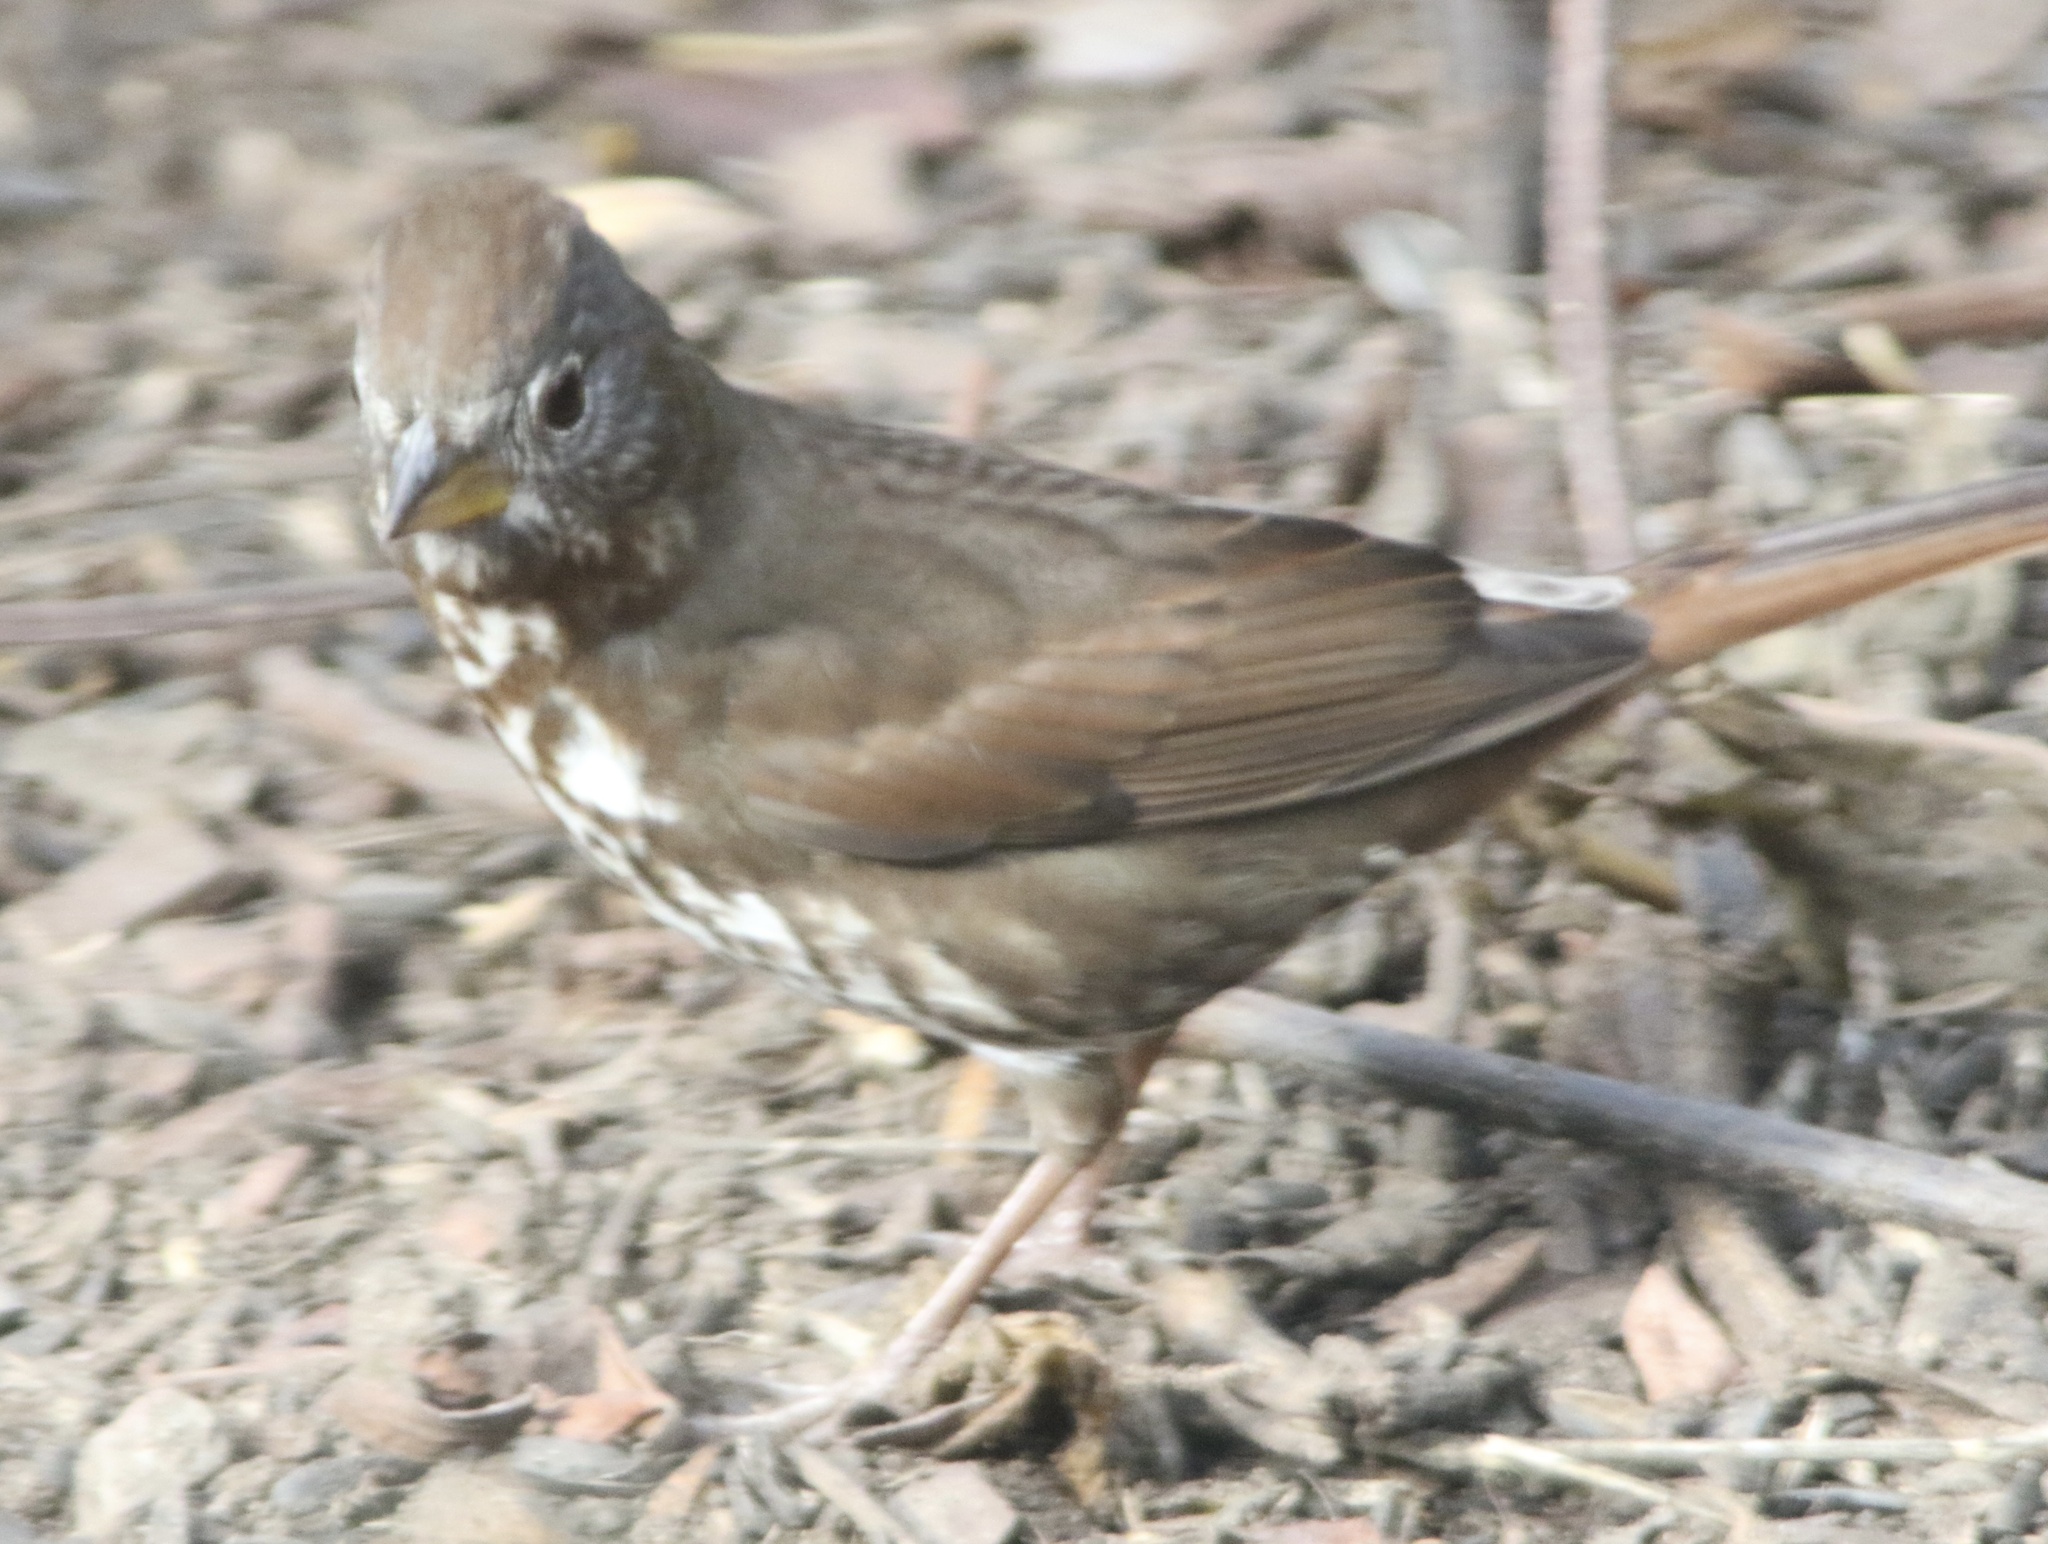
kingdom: Animalia
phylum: Chordata
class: Aves
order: Passeriformes
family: Passerellidae
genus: Passerella
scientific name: Passerella iliaca
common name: Fox sparrow
